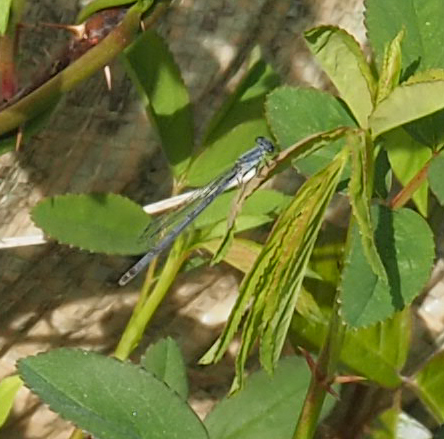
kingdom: Animalia
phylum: Arthropoda
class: Insecta
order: Odonata
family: Coenagrionidae
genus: Ischnura
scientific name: Ischnura posita
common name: Fragile forktail
